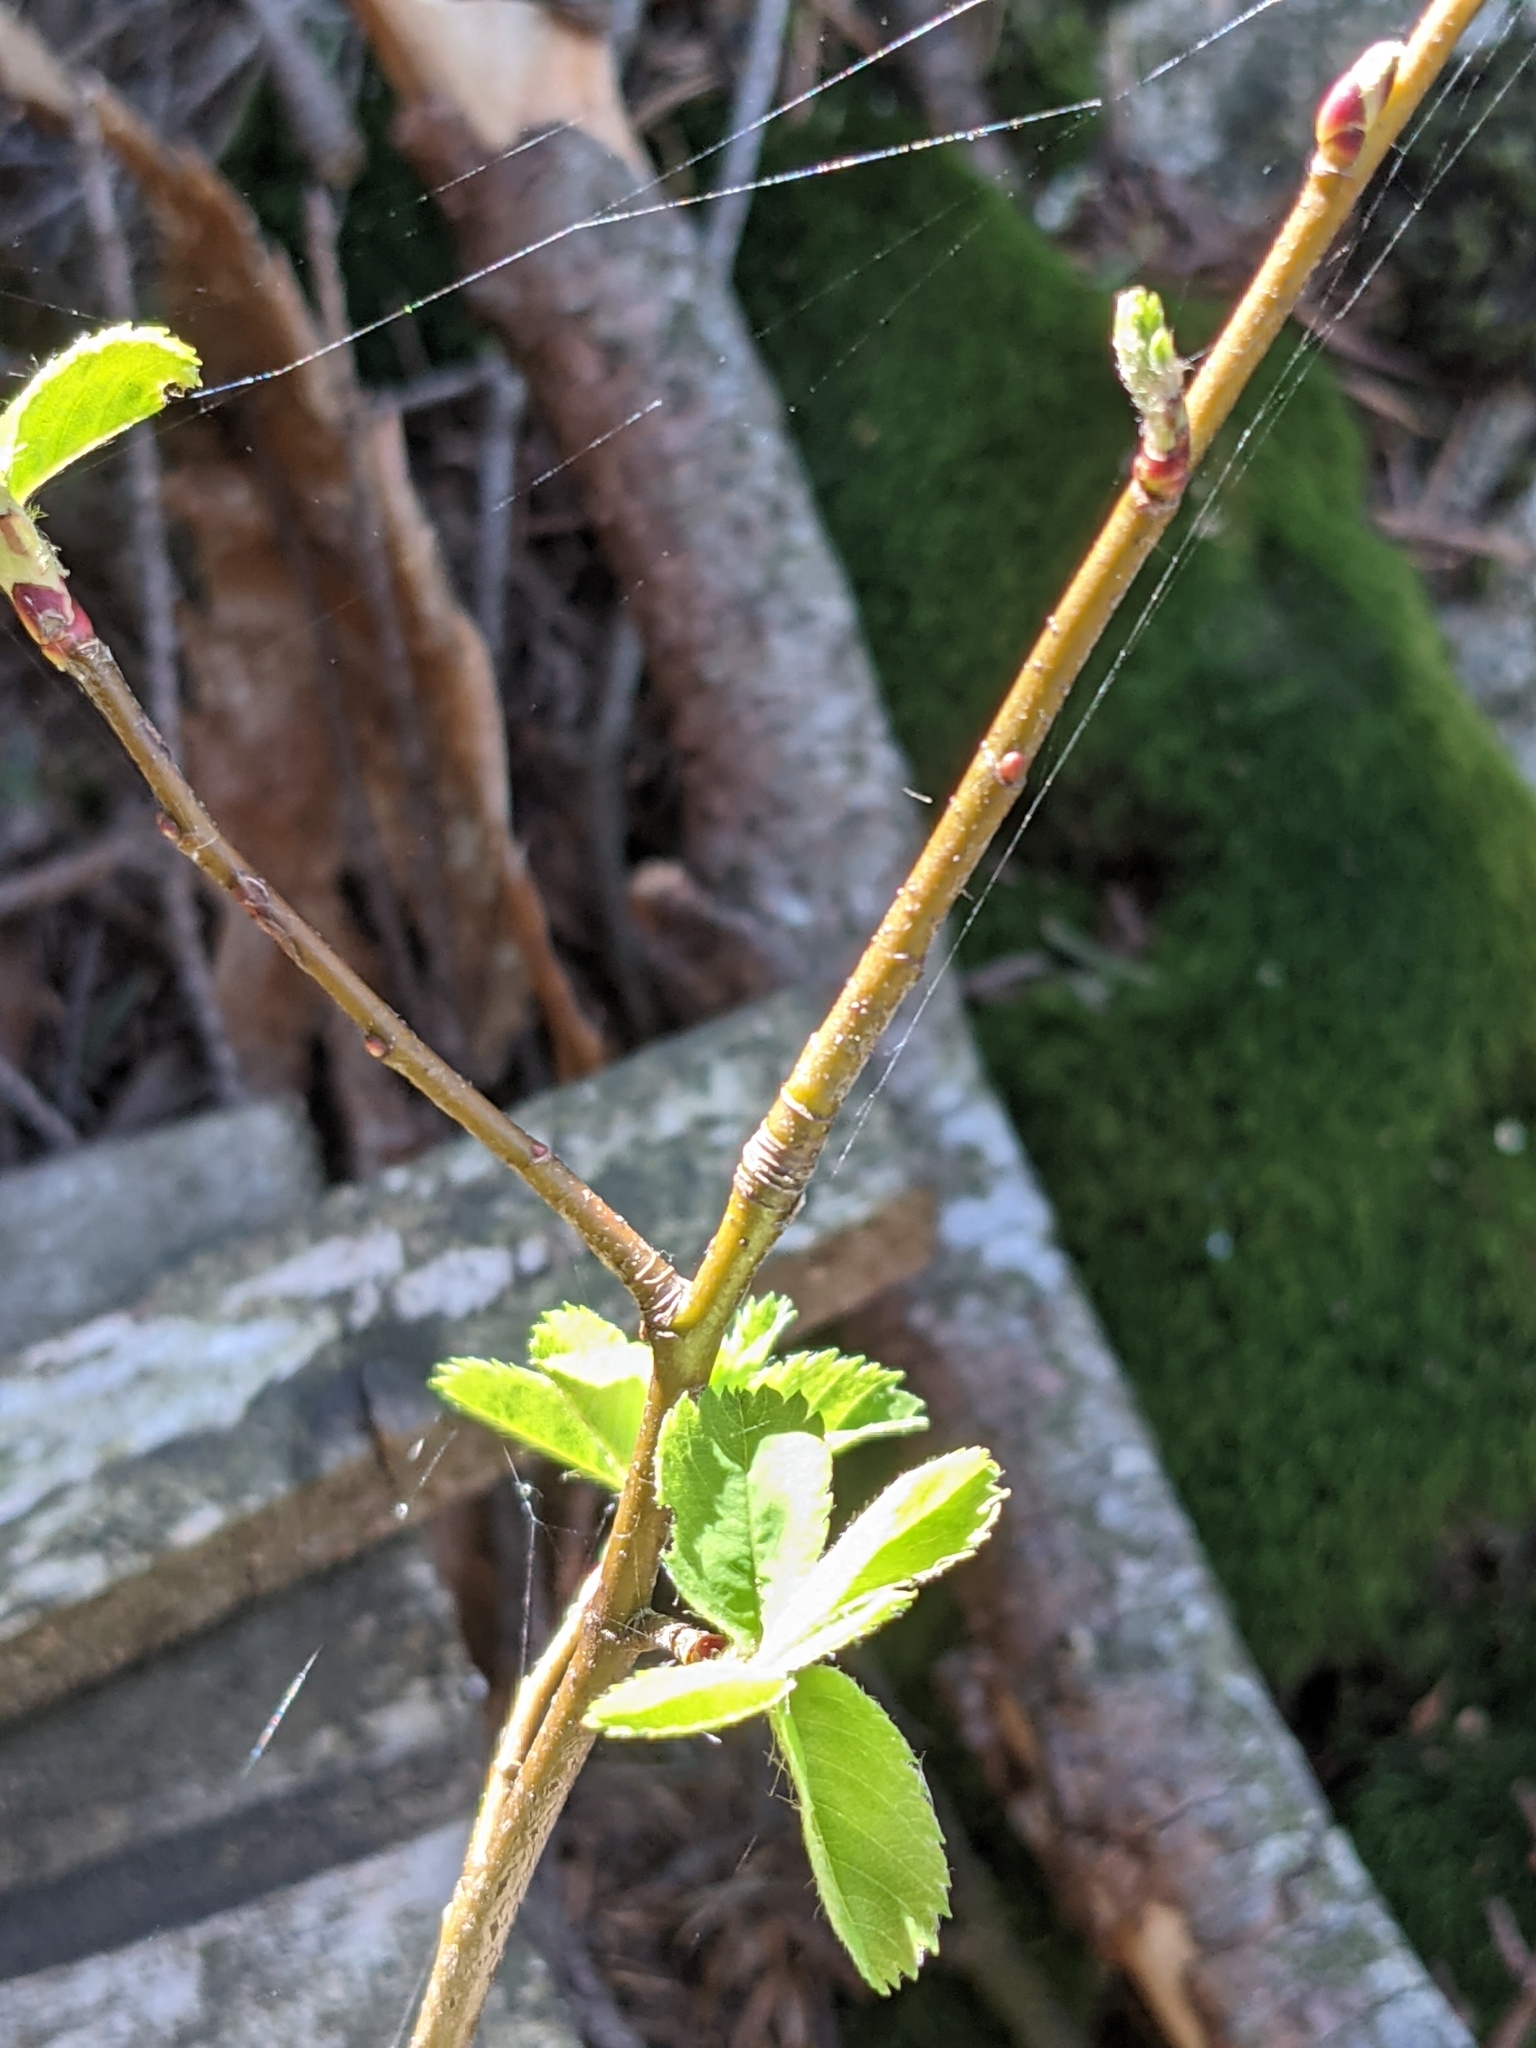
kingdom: Plantae
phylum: Tracheophyta
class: Magnoliopsida
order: Rosales
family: Rosaceae
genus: Amelanchier
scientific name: Amelanchier alnifolia
